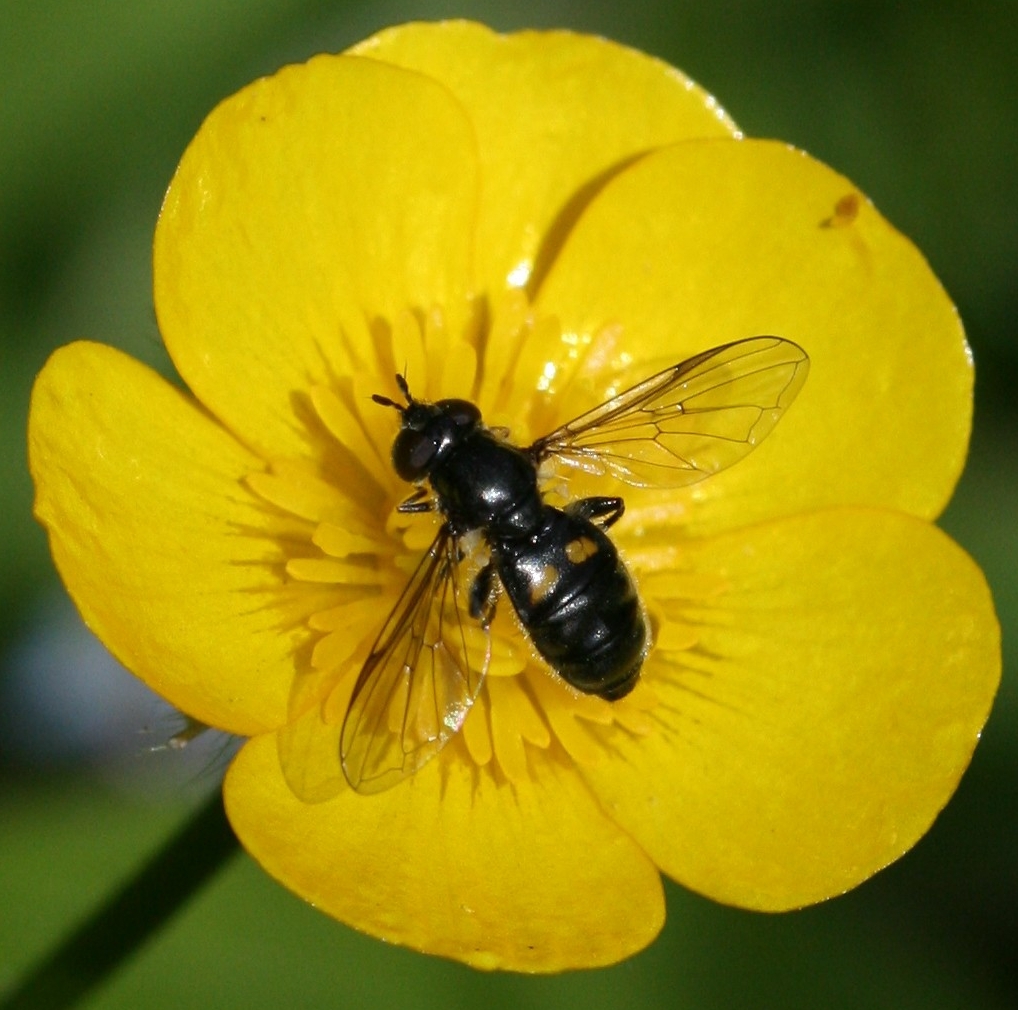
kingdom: Animalia
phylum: Arthropoda
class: Insecta
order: Diptera
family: Syrphidae
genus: Pipiza
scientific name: Pipiza
